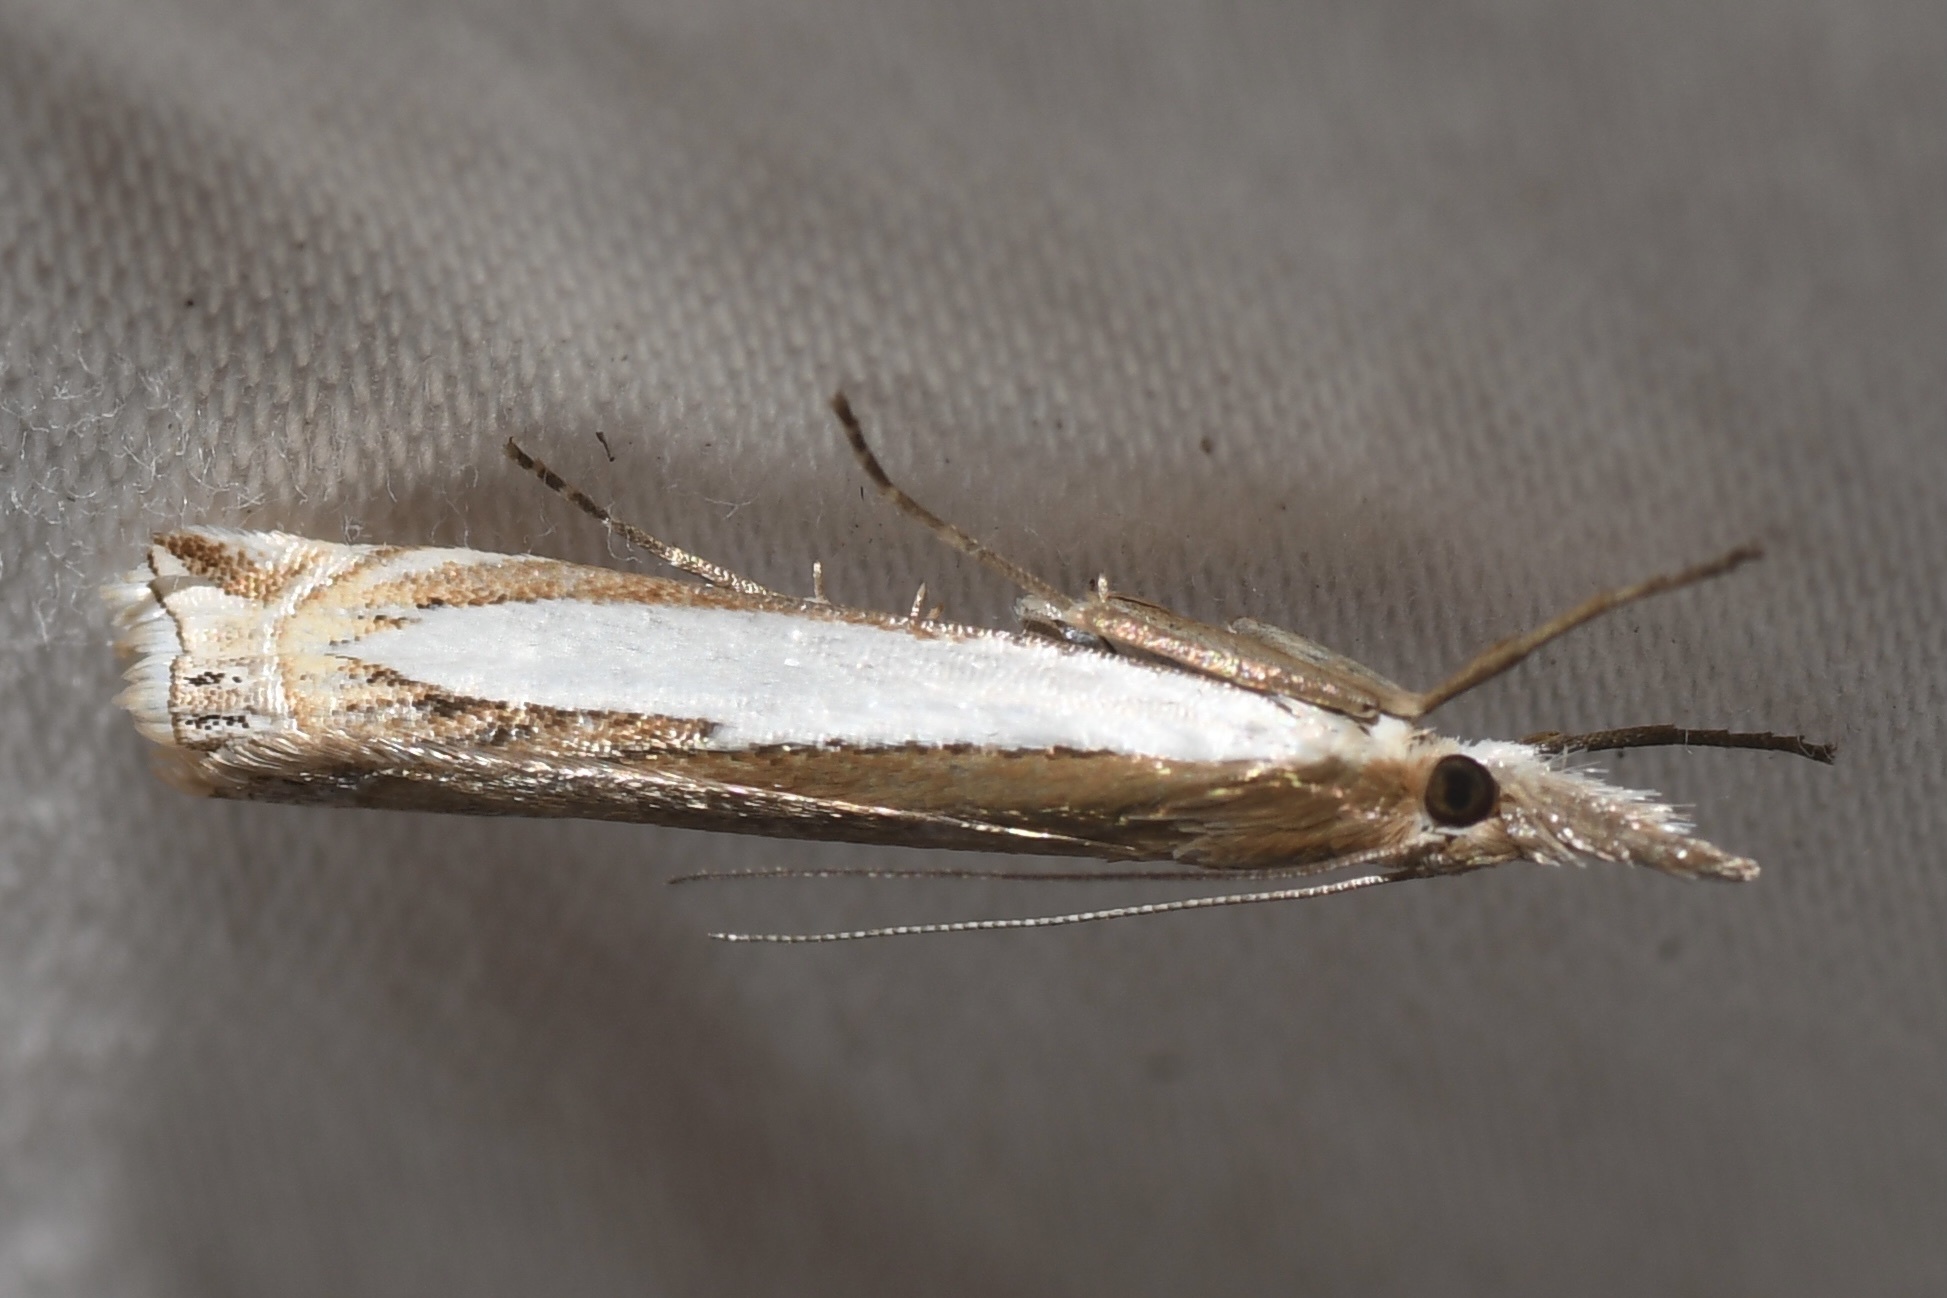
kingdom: Animalia
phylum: Arthropoda
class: Insecta
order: Lepidoptera
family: Crambidae
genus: Crambus
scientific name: Crambus leachellus
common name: Leach's grass-veneer
